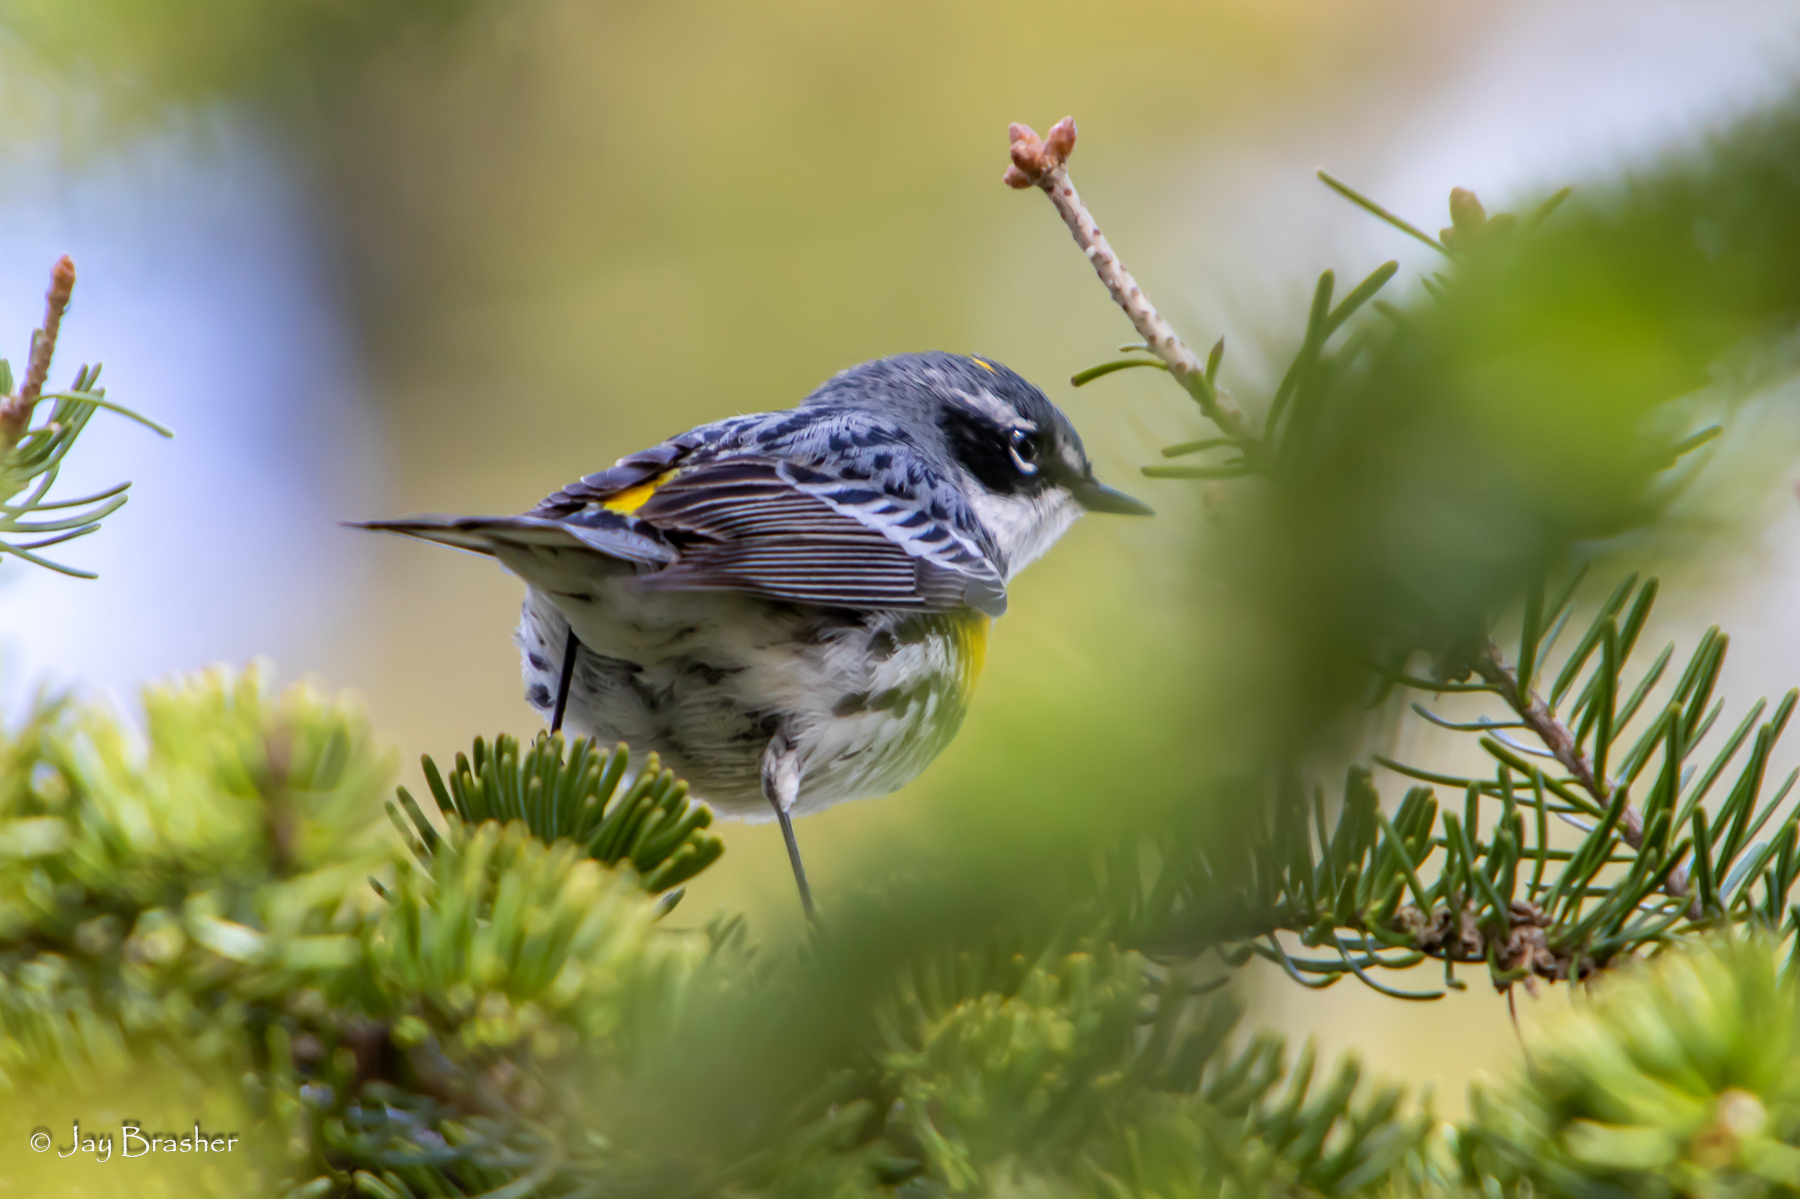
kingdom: Animalia
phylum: Chordata
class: Aves
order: Passeriformes
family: Parulidae
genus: Setophaga
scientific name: Setophaga coronata
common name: Myrtle warbler
